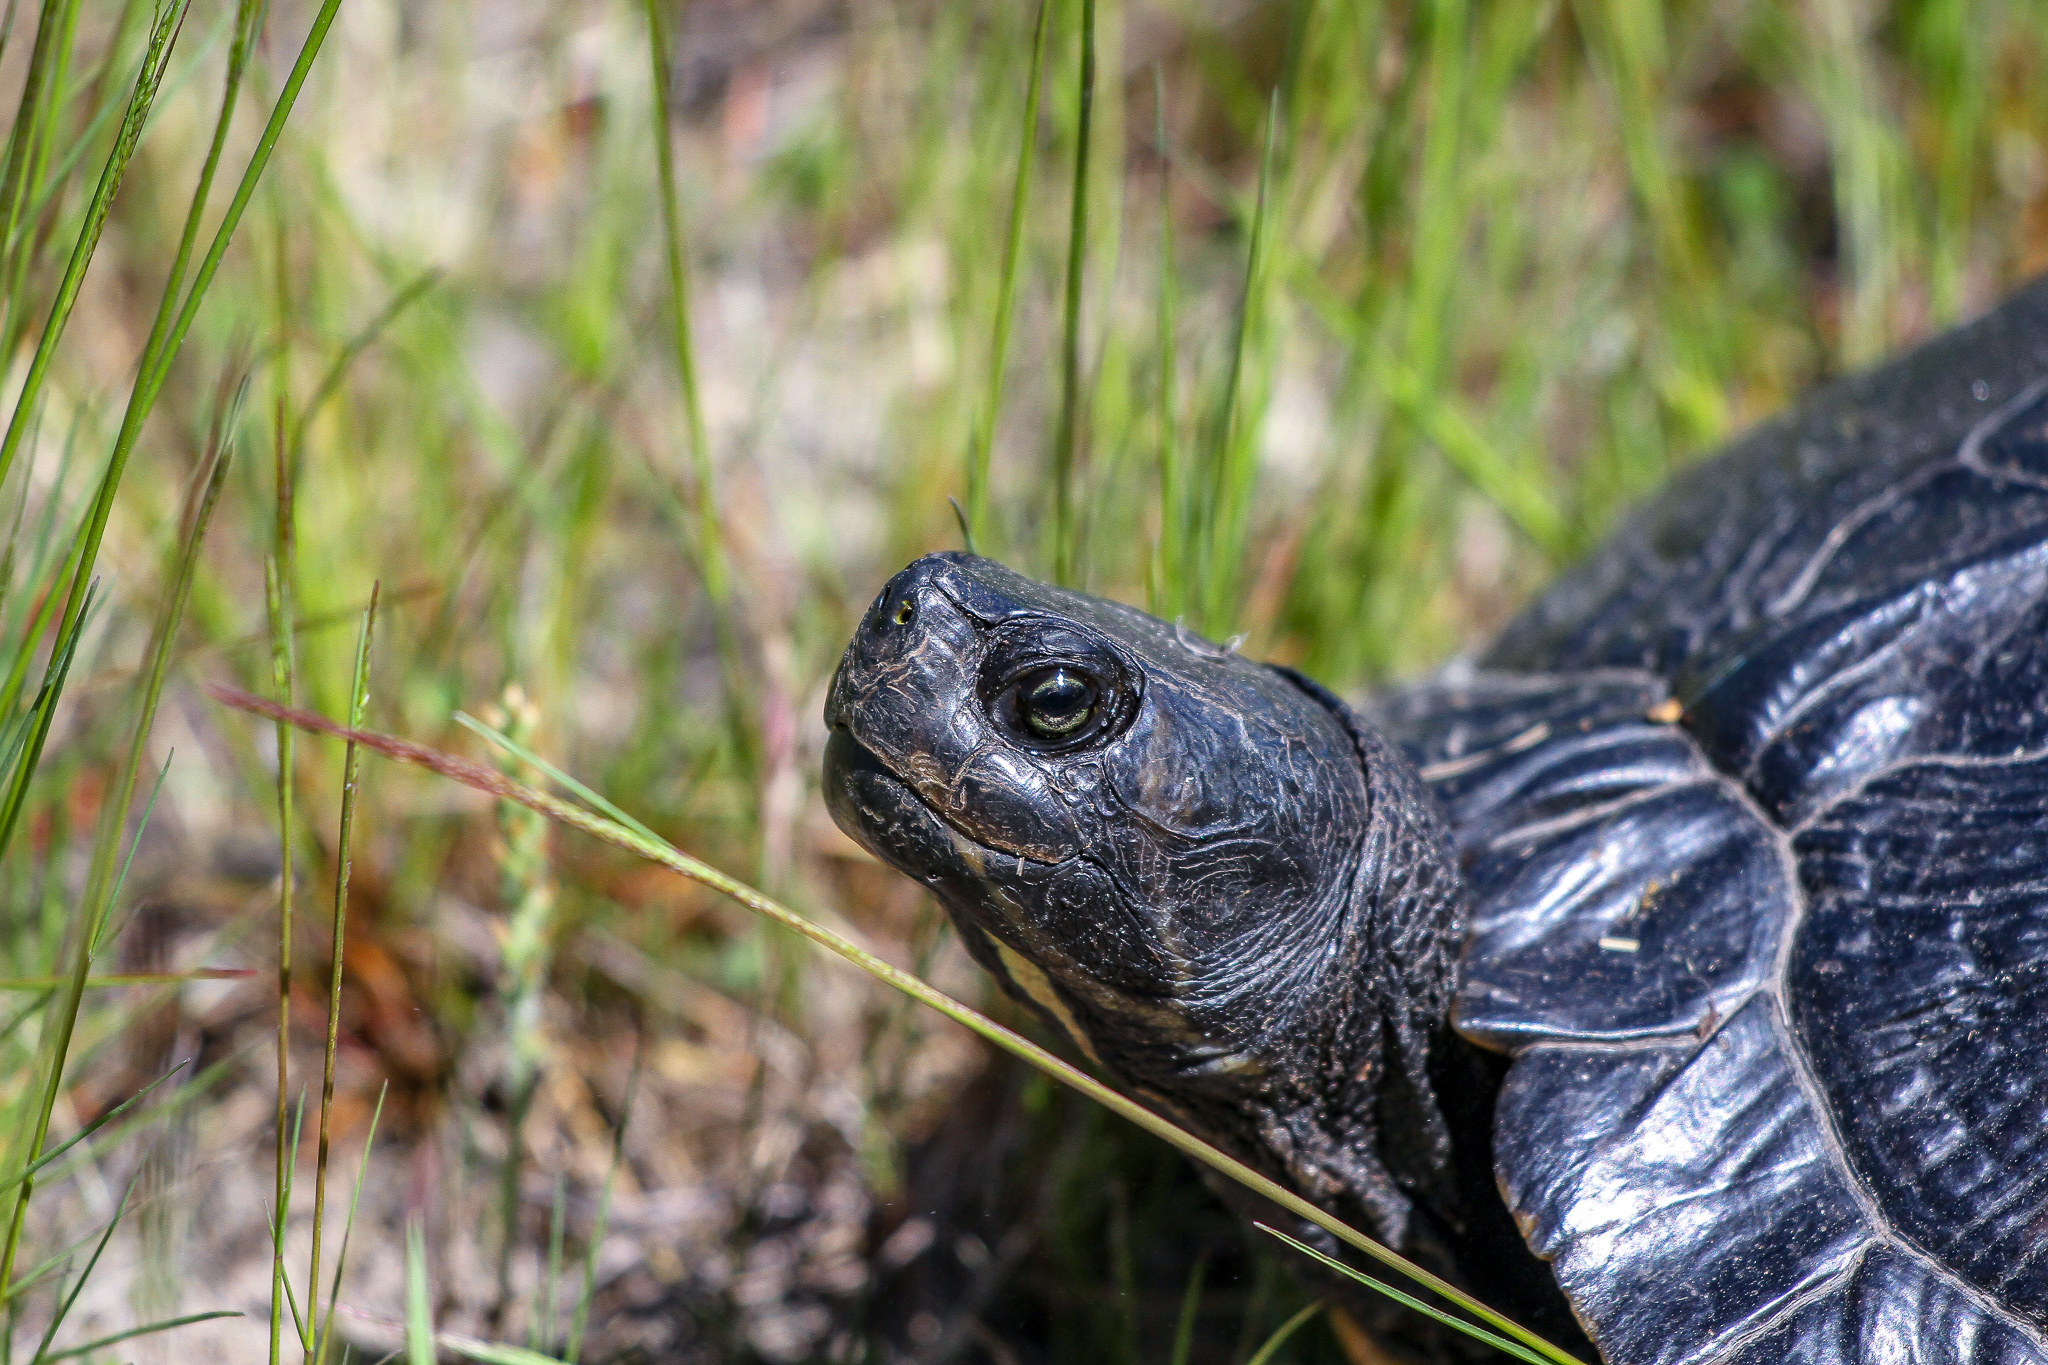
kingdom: Animalia
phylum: Chordata
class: Testudines
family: Emydidae
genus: Trachemys
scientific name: Trachemys scripta
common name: Slider
